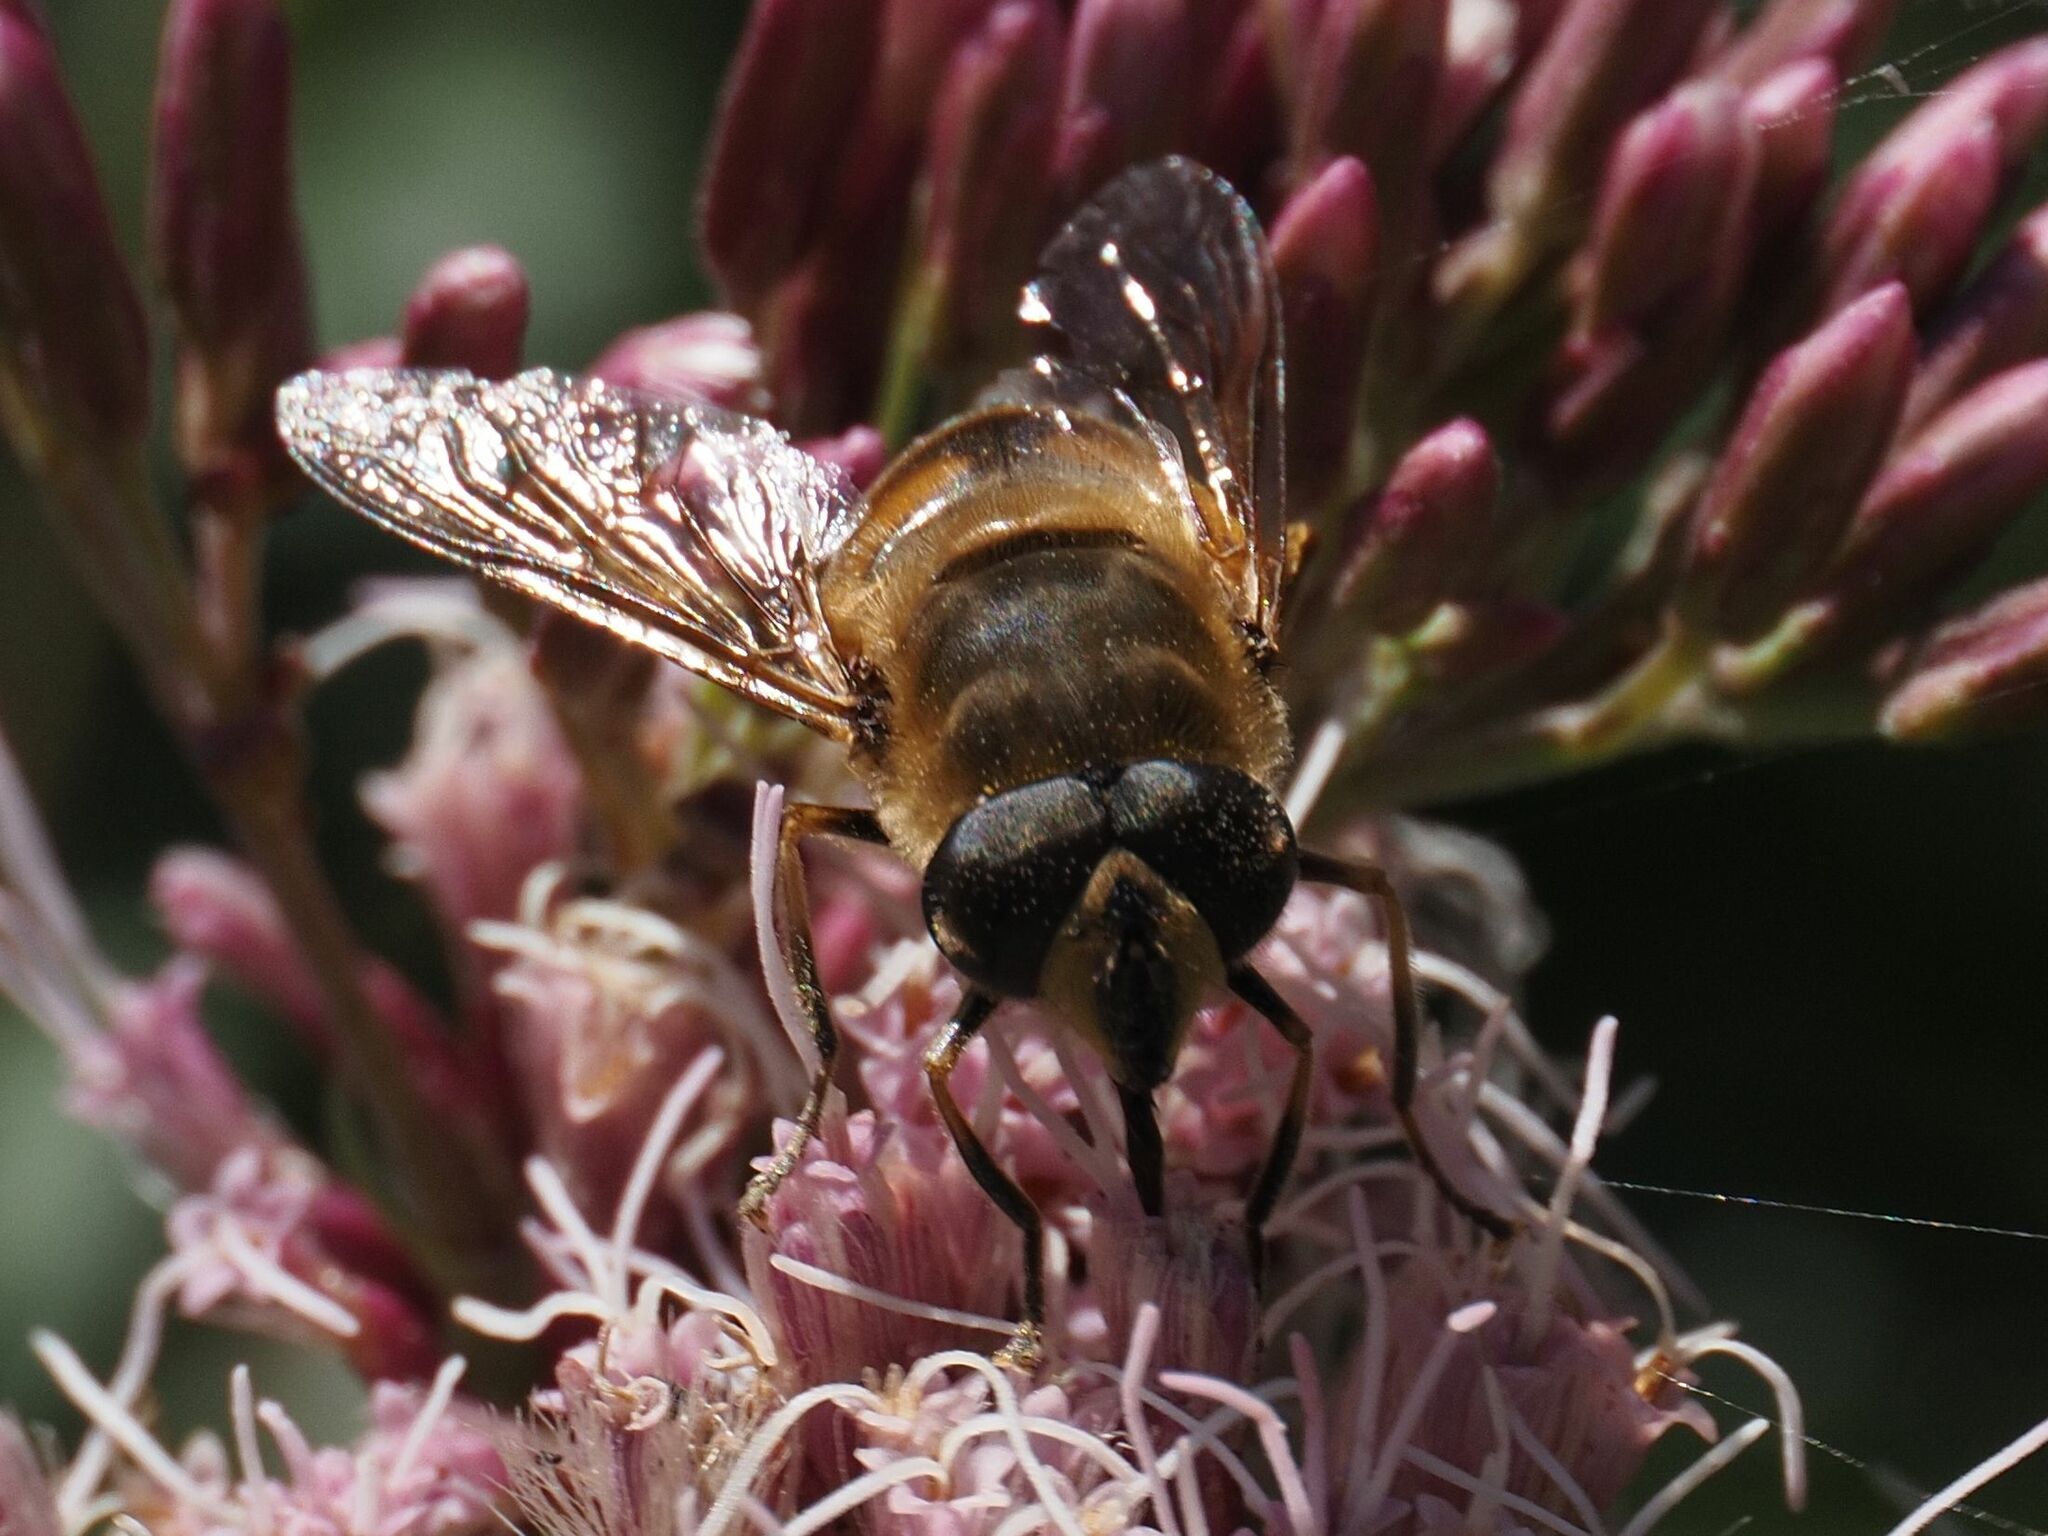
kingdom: Animalia
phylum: Arthropoda
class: Insecta
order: Diptera
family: Syrphidae
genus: Eristalis
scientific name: Eristalis tenax
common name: Drone fly
